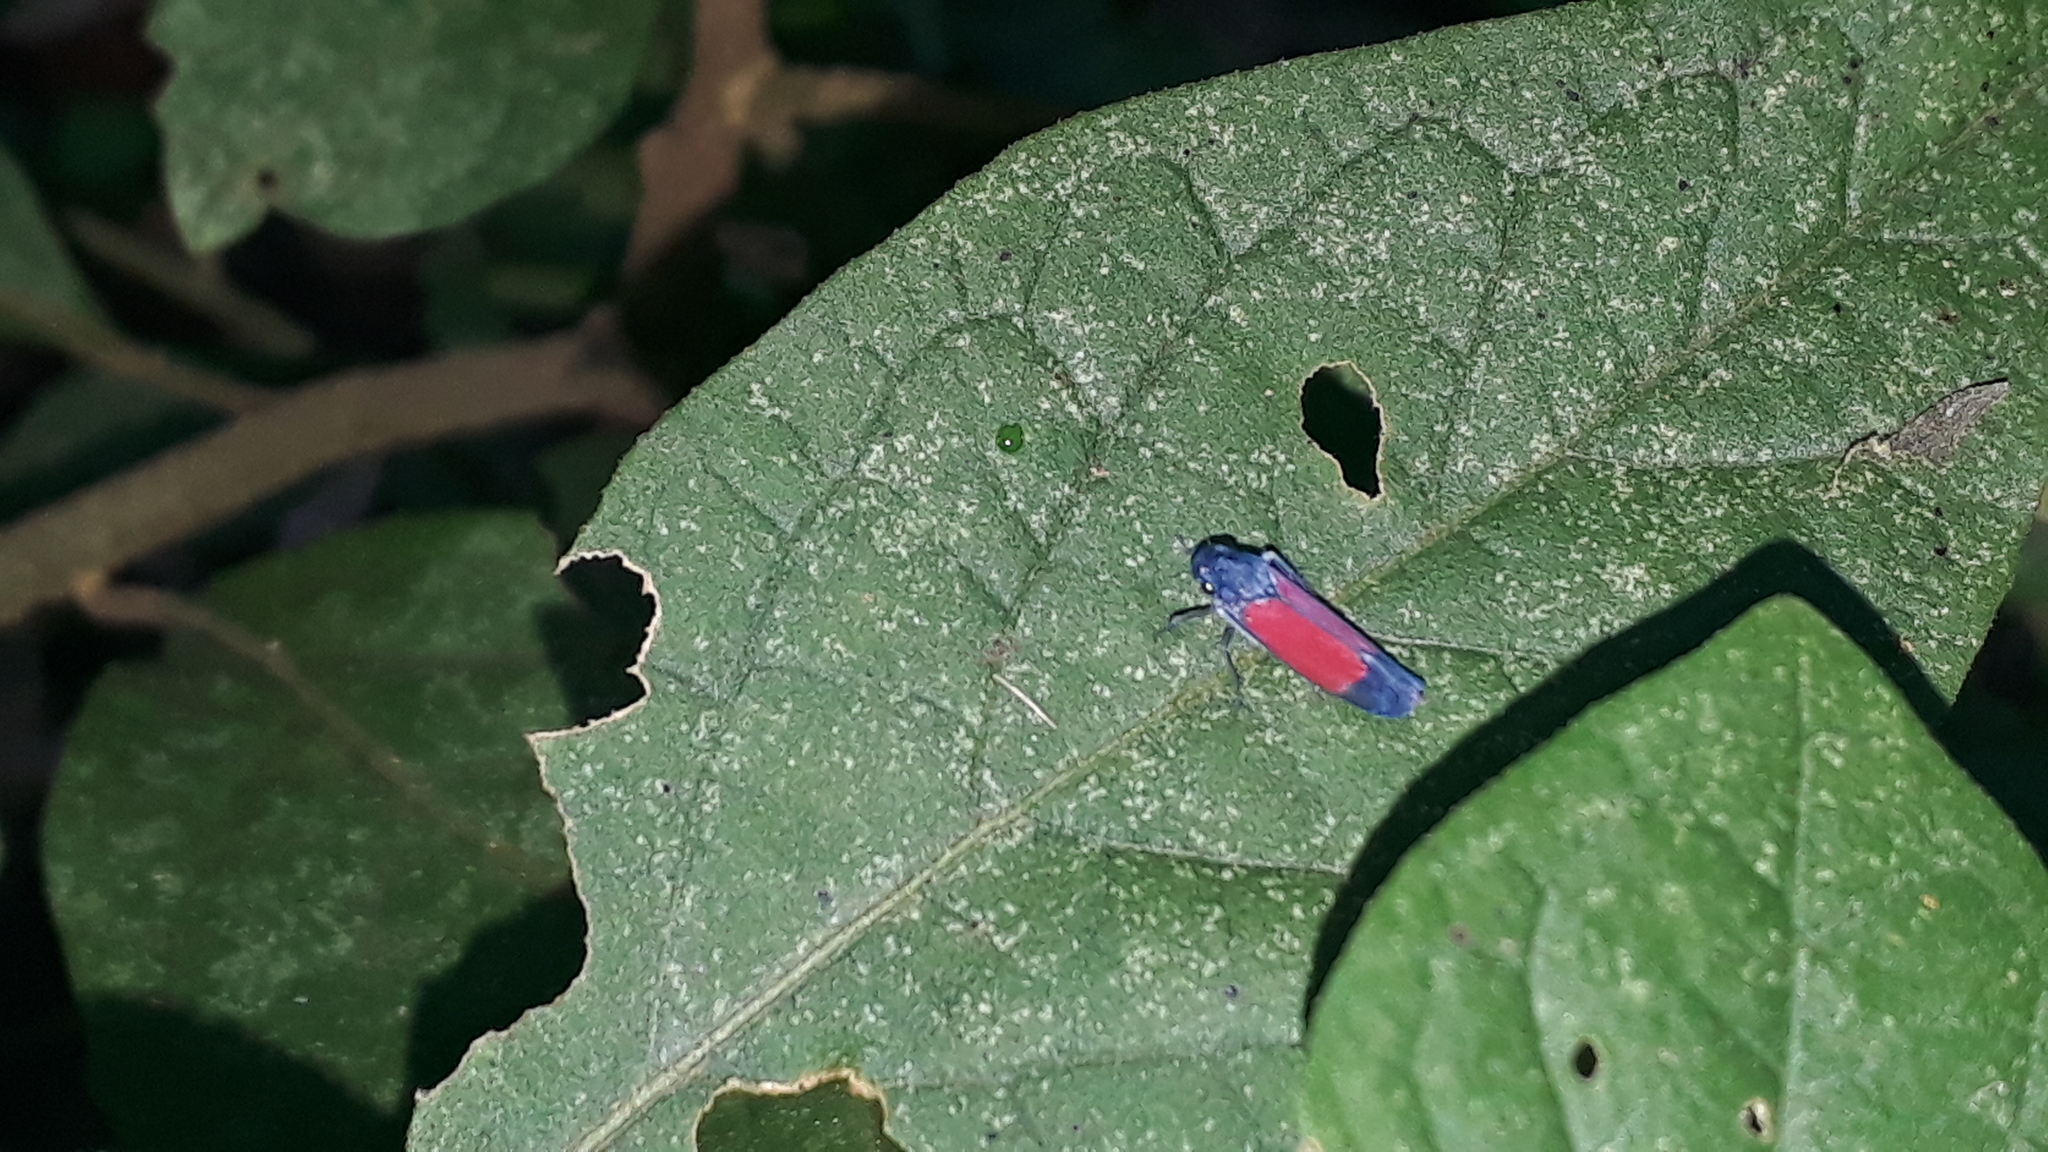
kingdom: Animalia
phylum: Arthropoda
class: Insecta
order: Hemiptera
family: Cicadellidae
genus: Cardioscarta
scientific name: Cardioscarta flavifrons
